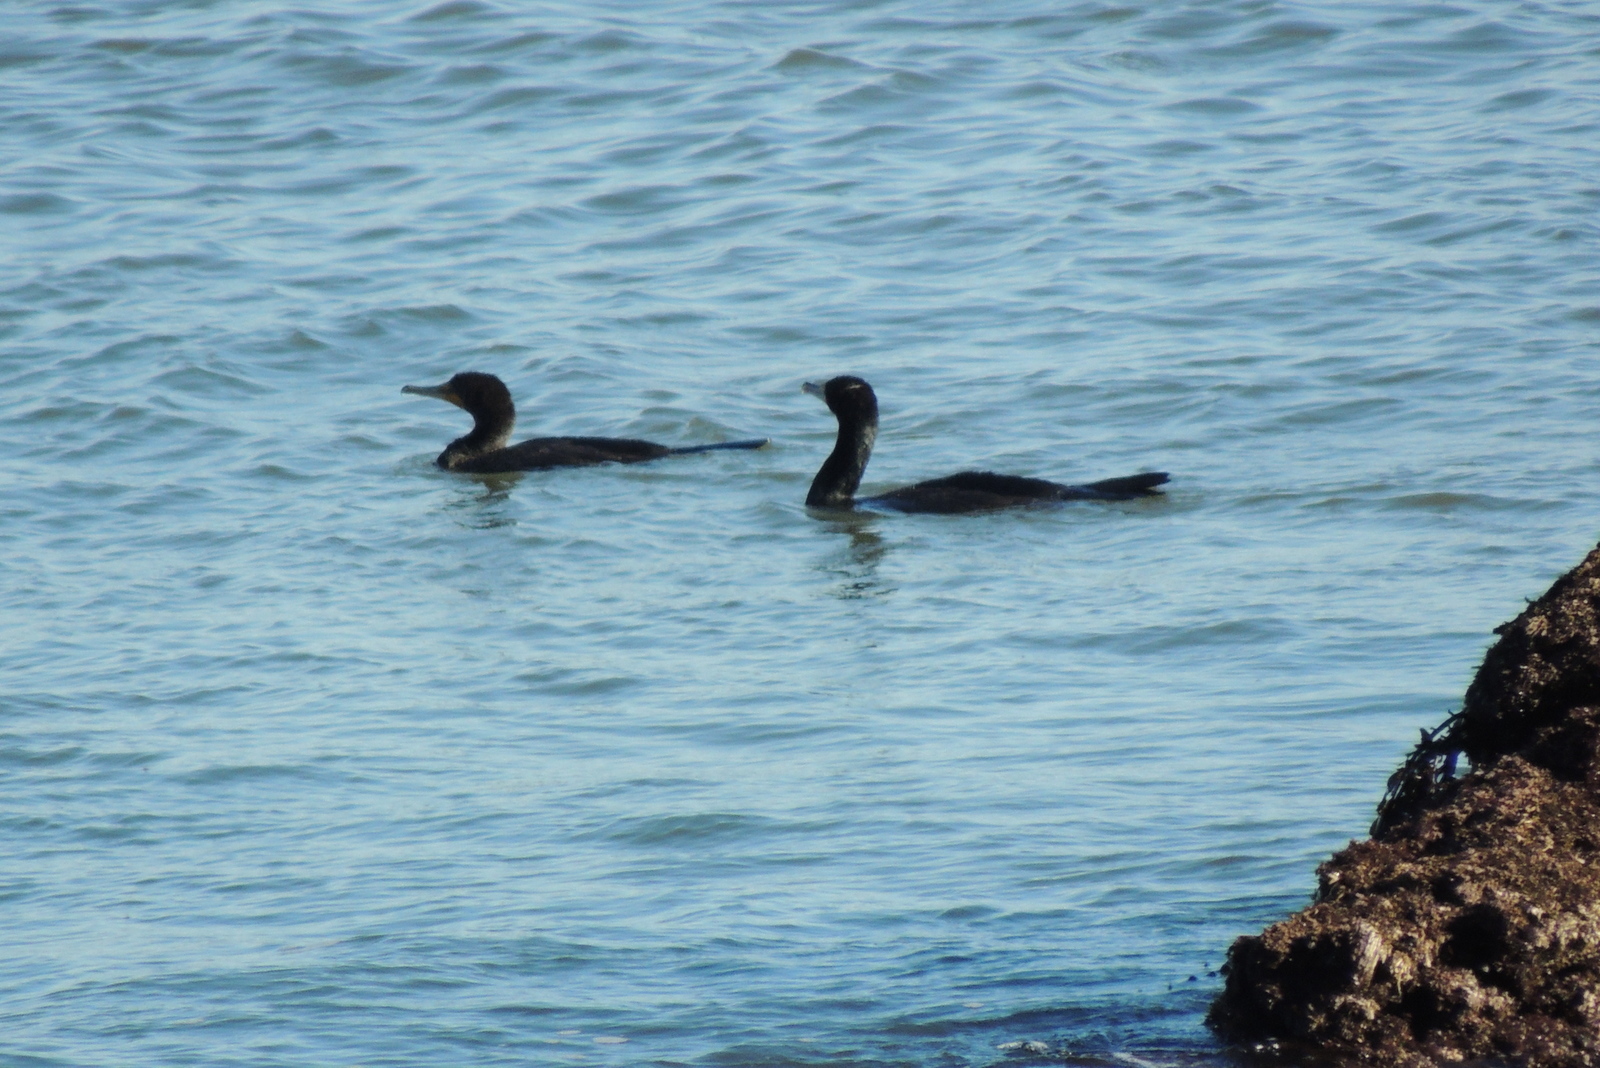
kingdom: Animalia
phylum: Chordata
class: Aves
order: Suliformes
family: Phalacrocoracidae
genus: Phalacrocorax
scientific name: Phalacrocorax auritus
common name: Double-crested cormorant
